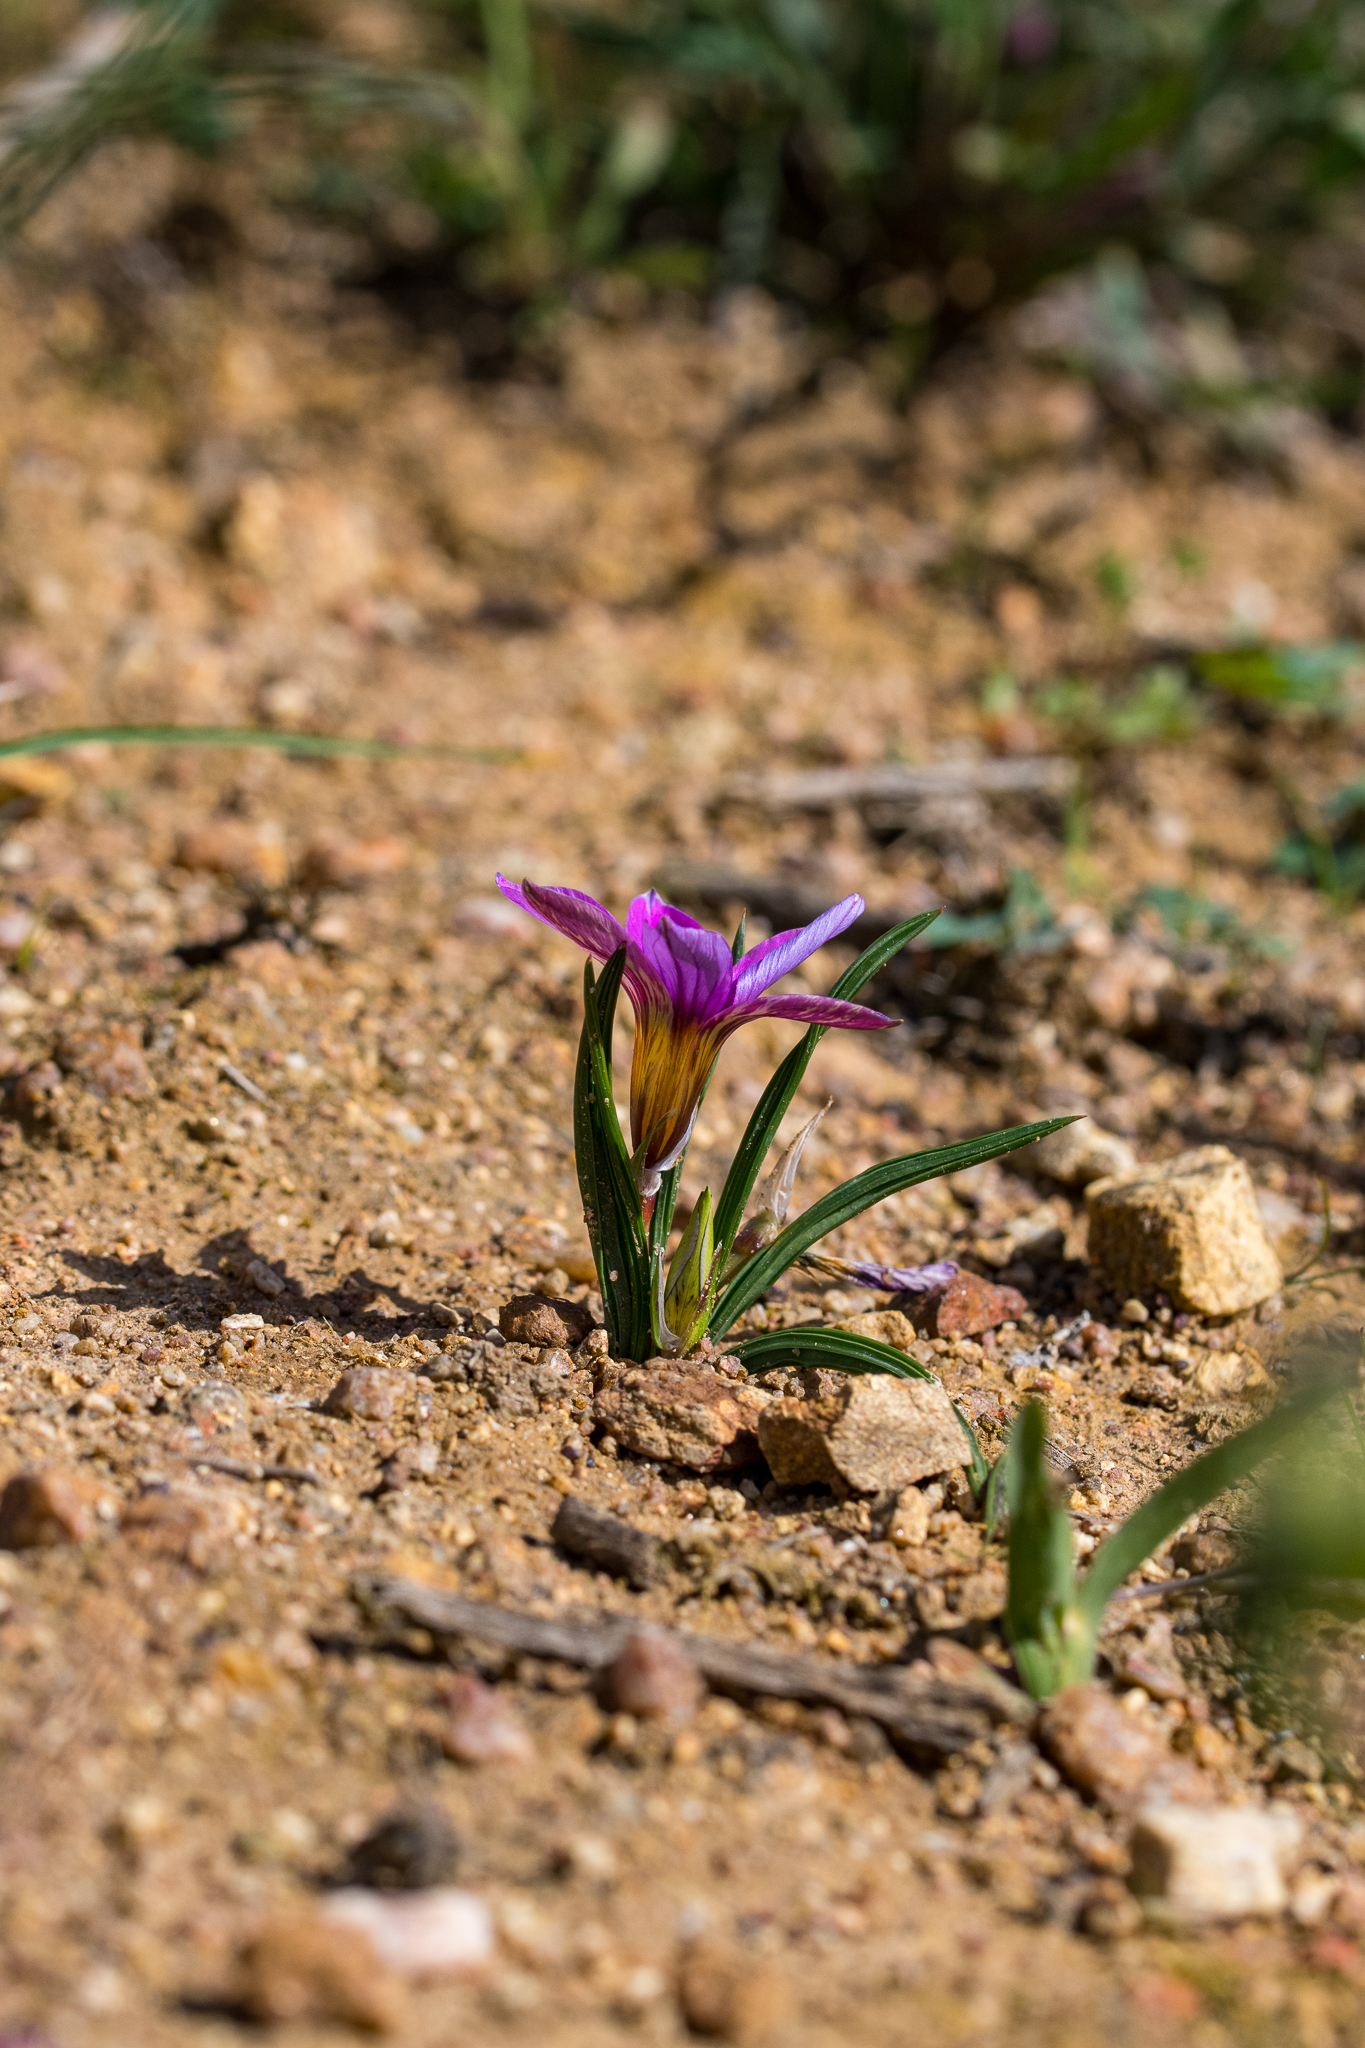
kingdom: Plantae
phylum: Tracheophyta
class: Liliopsida
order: Asparagales
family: Iridaceae
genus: Romulea
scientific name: Romulea rosea
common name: Oniongrass
